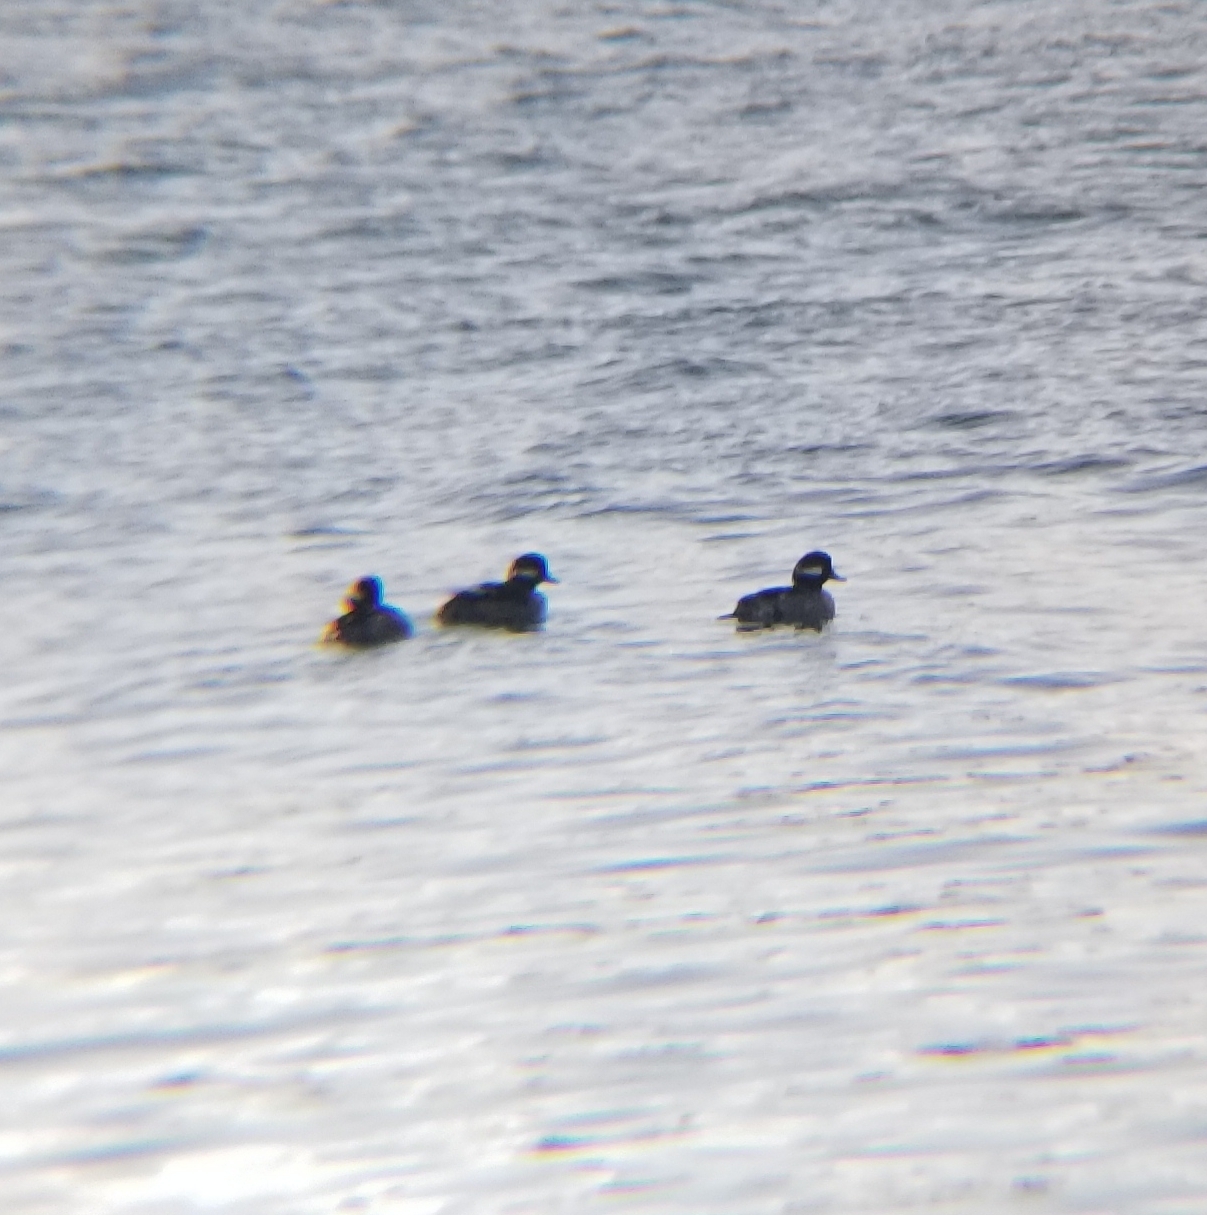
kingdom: Animalia
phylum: Chordata
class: Aves
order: Anseriformes
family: Anatidae
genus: Bucephala
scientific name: Bucephala albeola
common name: Bufflehead
